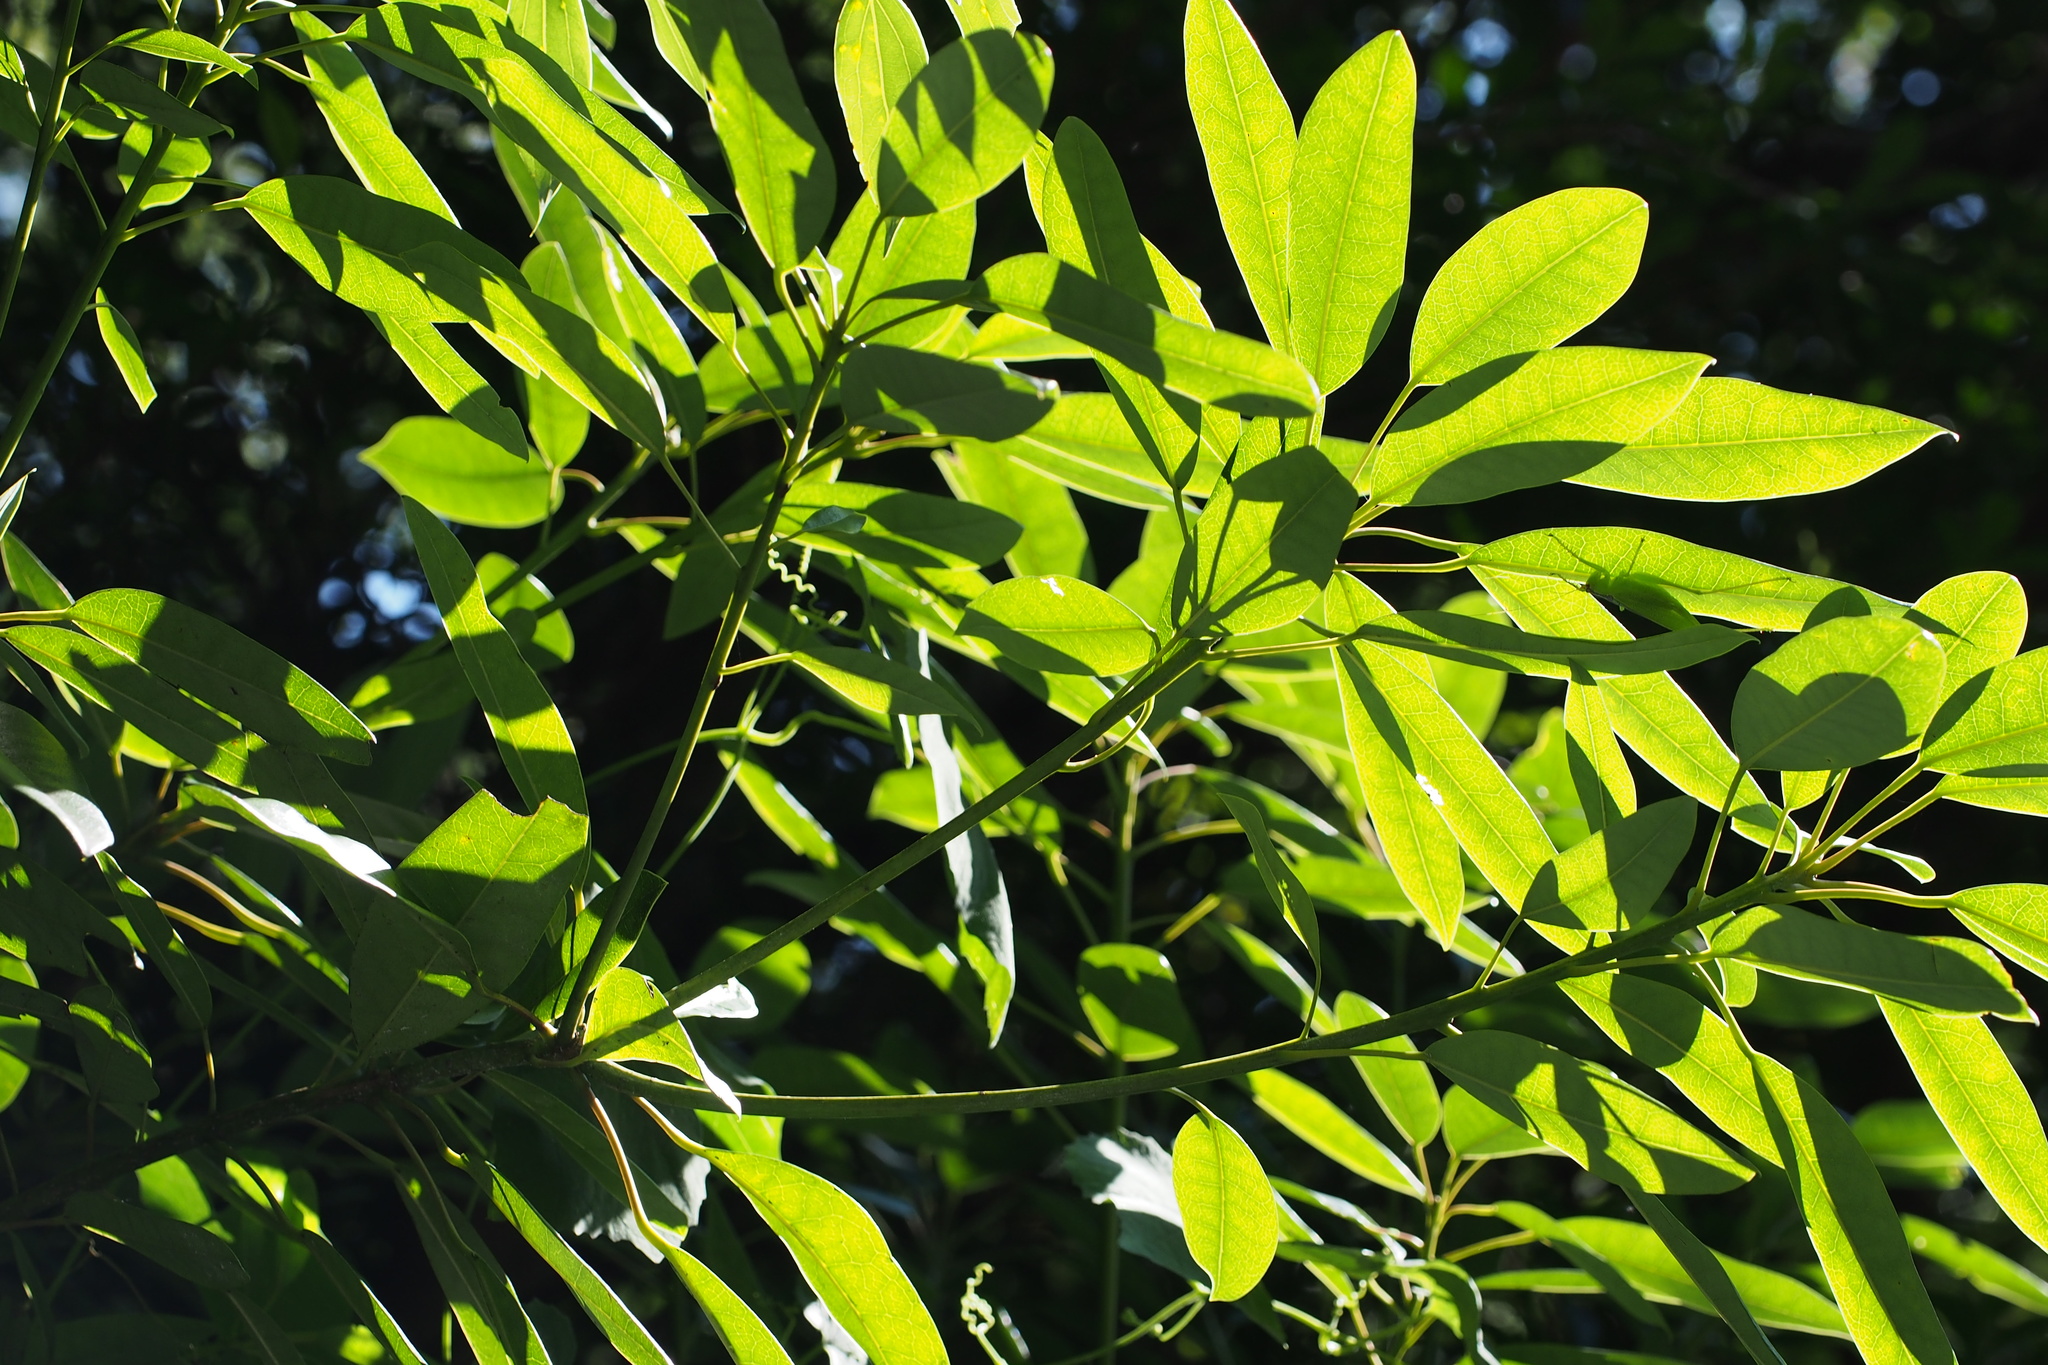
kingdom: Plantae
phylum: Tracheophyta
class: Magnoliopsida
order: Saxifragales
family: Daphniphyllaceae
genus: Daphniphyllum
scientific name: Daphniphyllum teijsmannii
